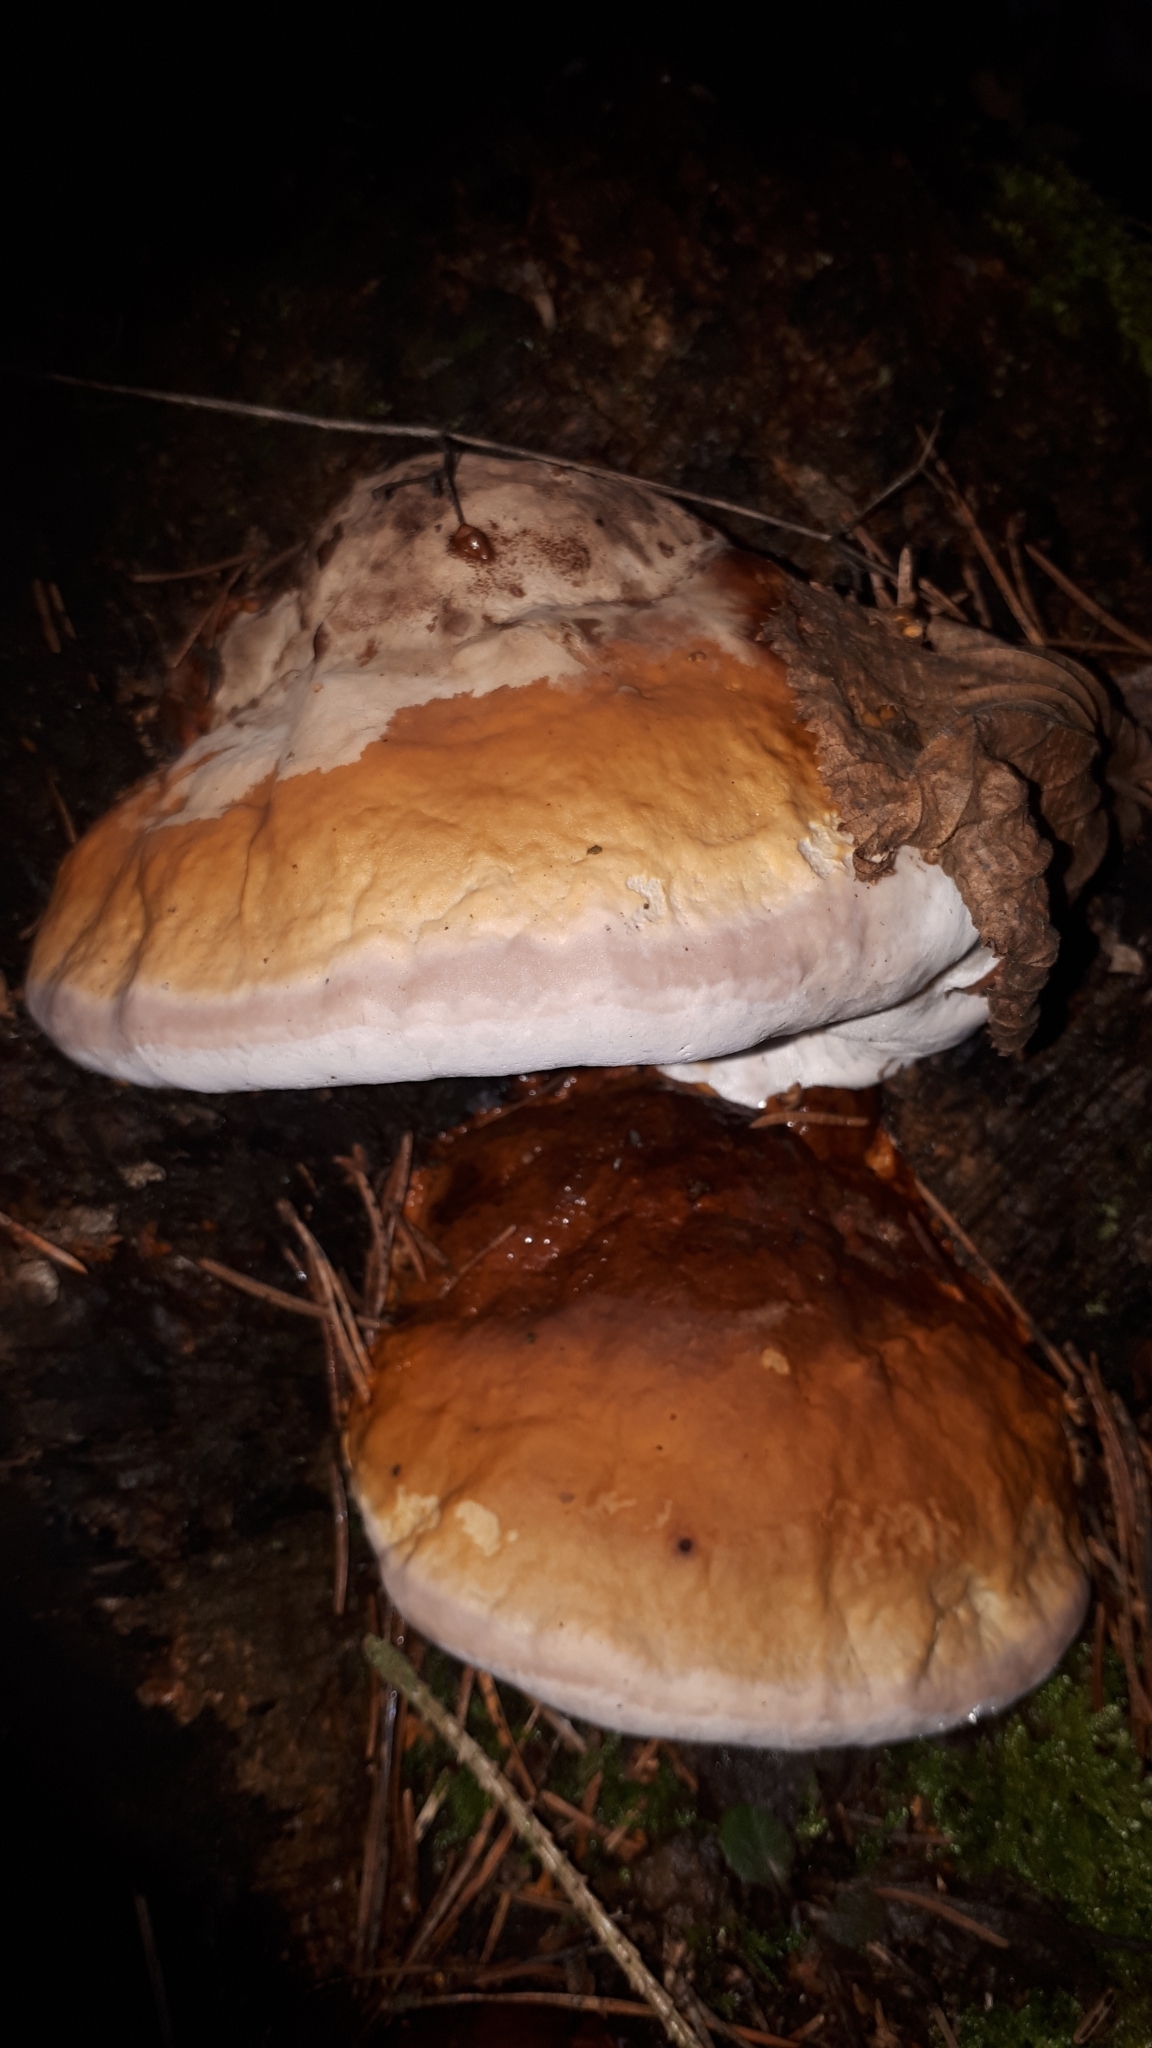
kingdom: Fungi
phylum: Basidiomycota
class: Agaricomycetes
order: Polyporales
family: Fomitopsidaceae
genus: Fomitopsis
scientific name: Fomitopsis pinicola
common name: Red-belted bracket
